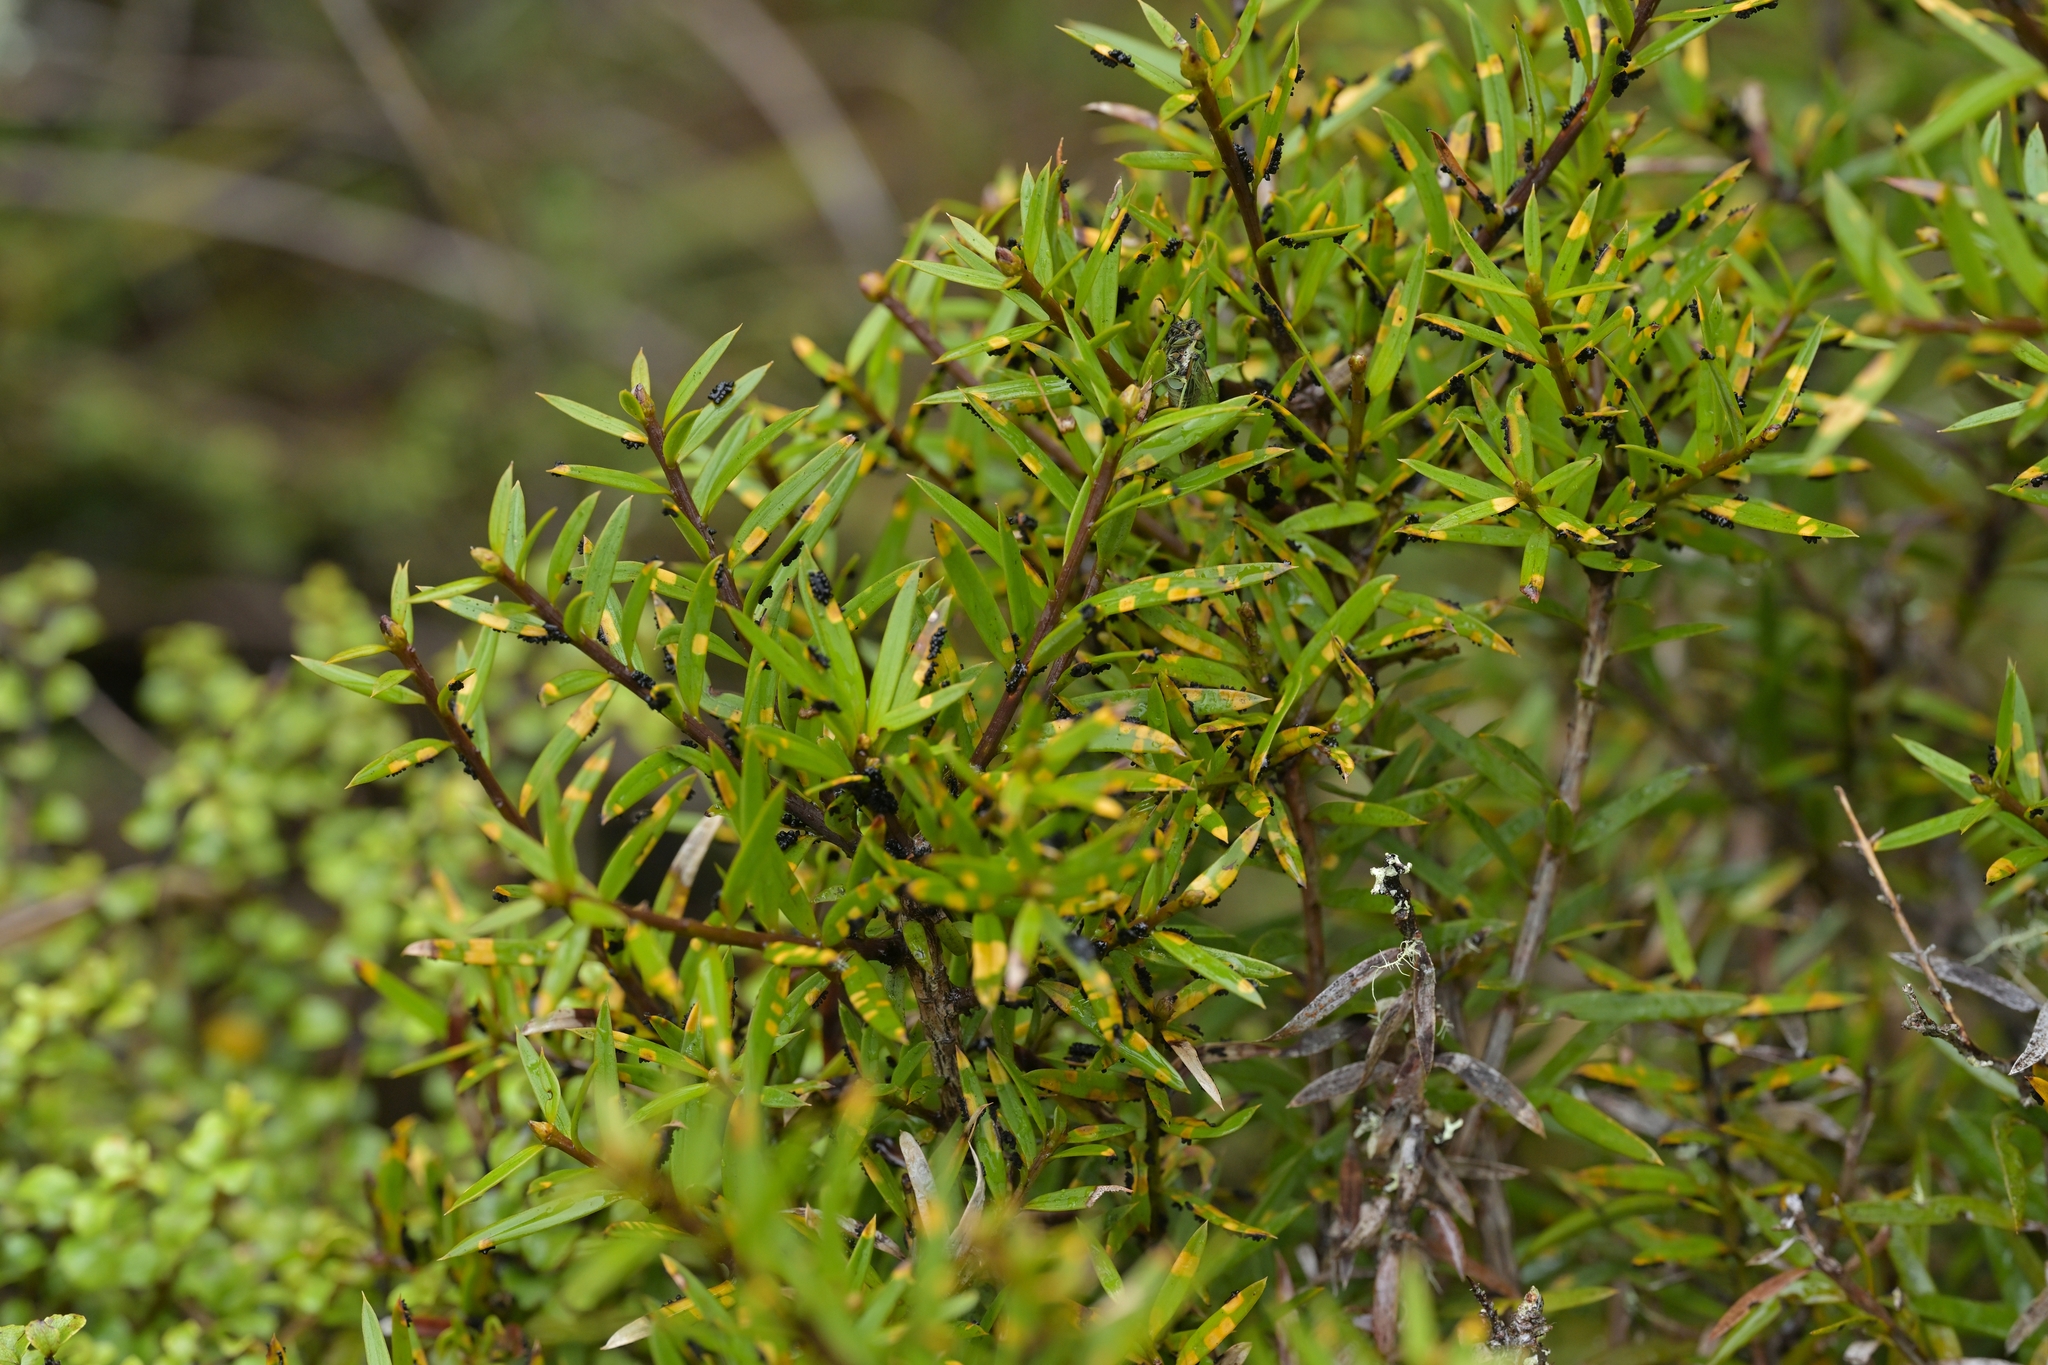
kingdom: Fungi
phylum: Ascomycota
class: Eurotiomycetes
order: Coryneliales
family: Coryneliaceae
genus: Corynelia
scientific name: Corynelia tropica
